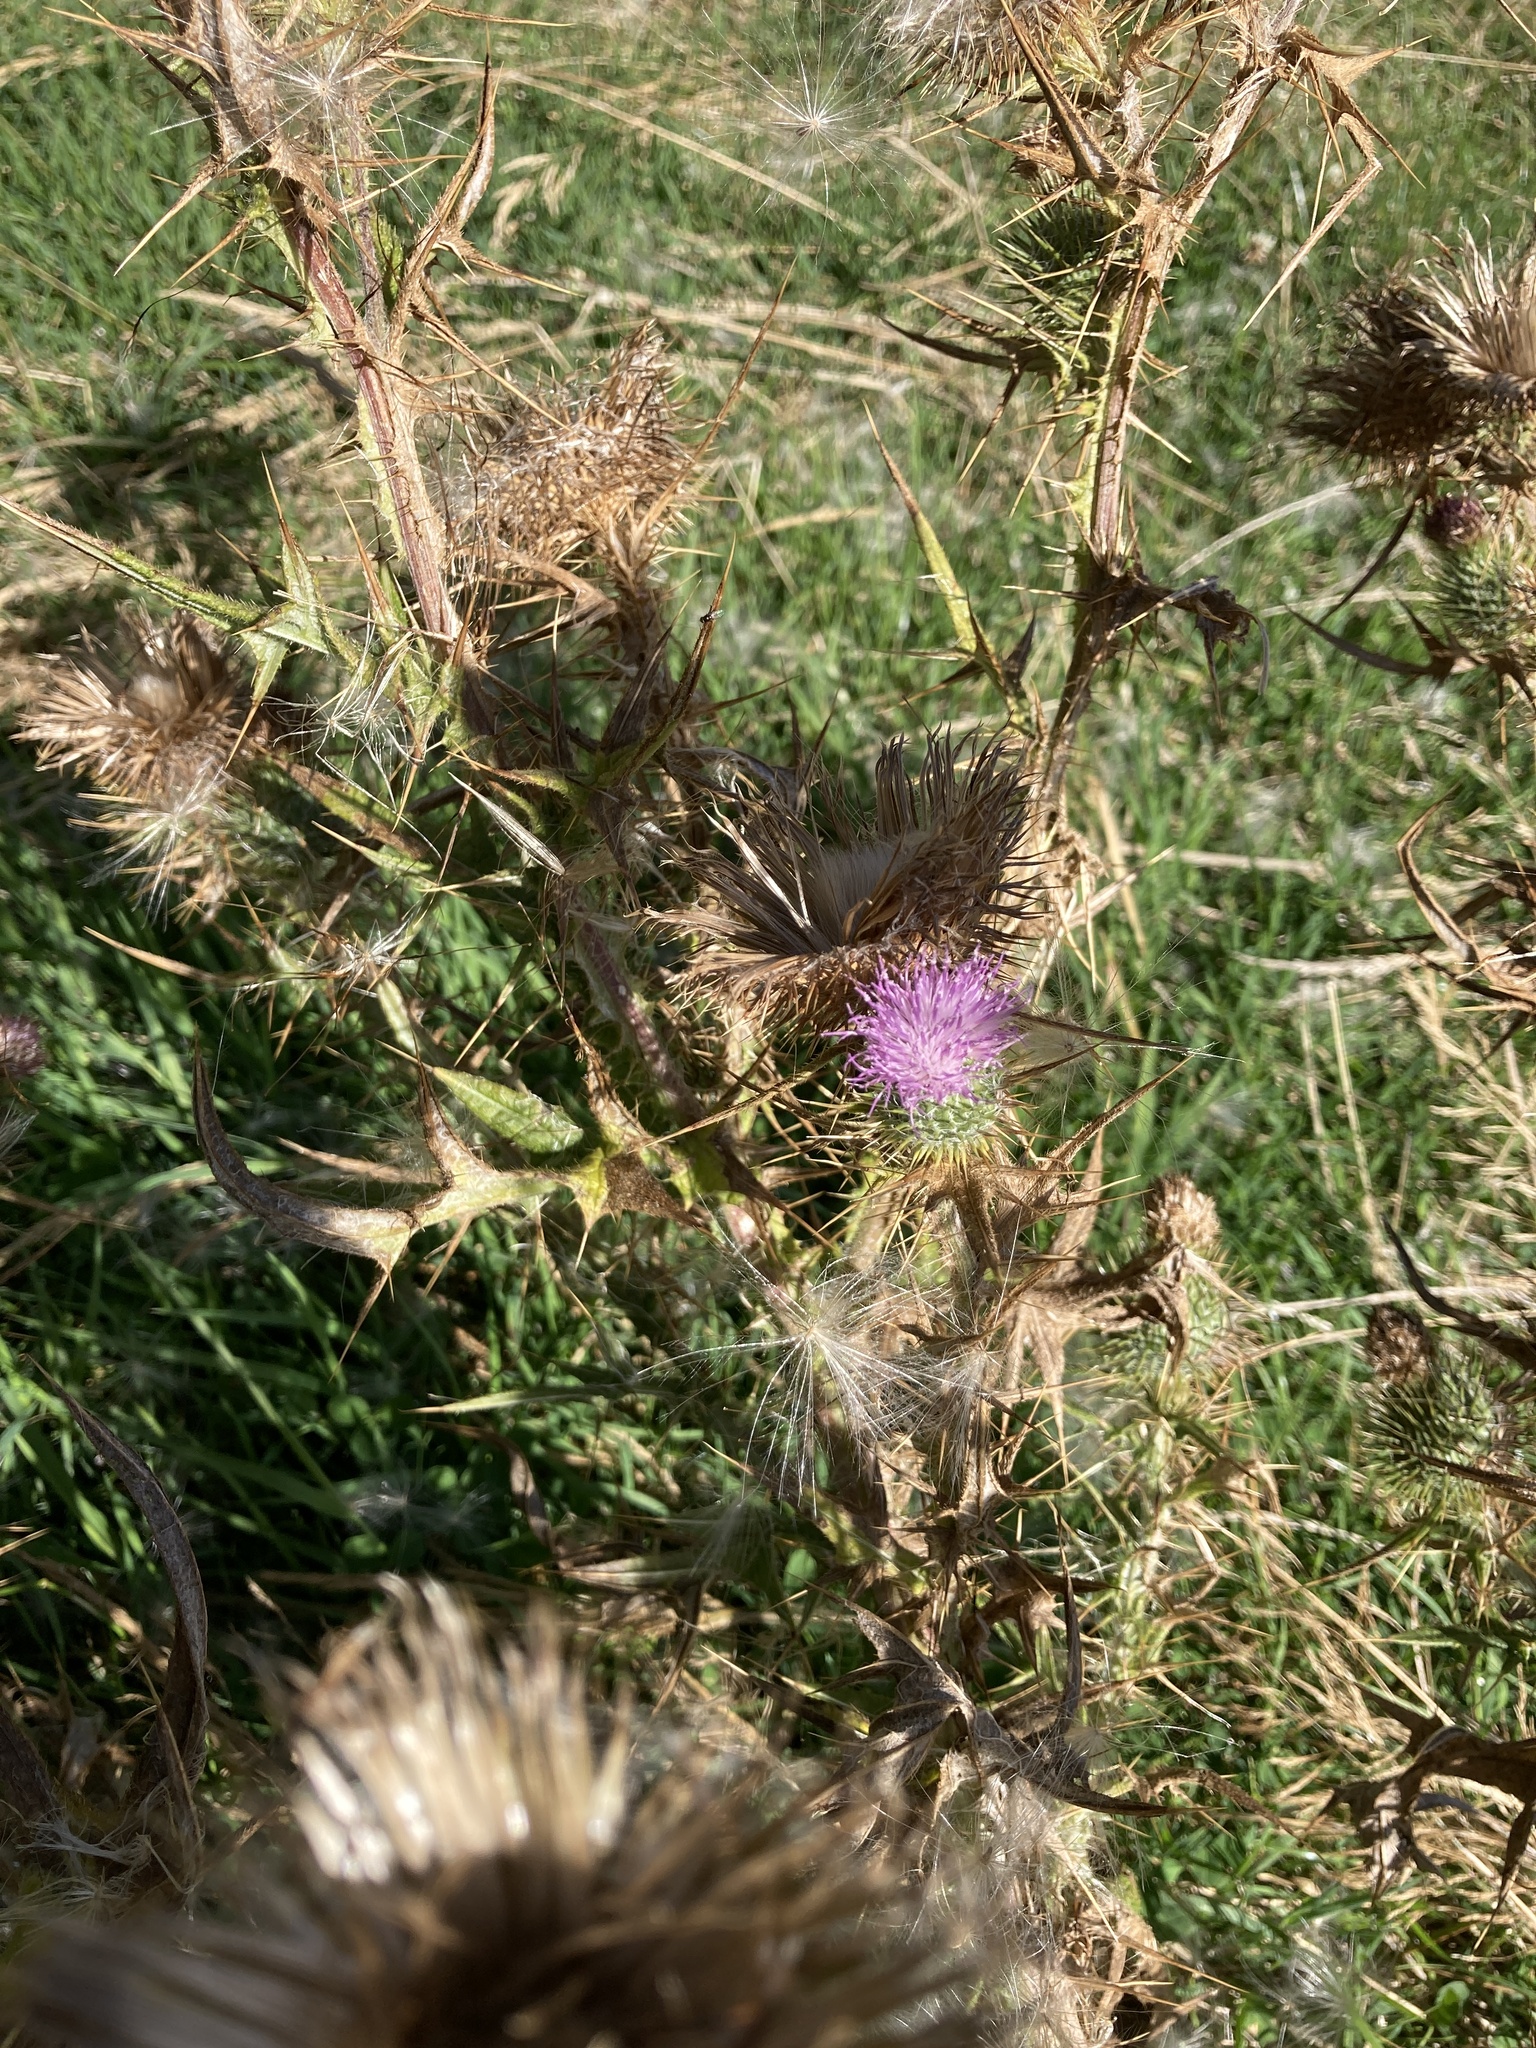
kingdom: Plantae
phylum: Tracheophyta
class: Magnoliopsida
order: Asterales
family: Asteraceae
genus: Cirsium
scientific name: Cirsium vulgare
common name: Bull thistle
